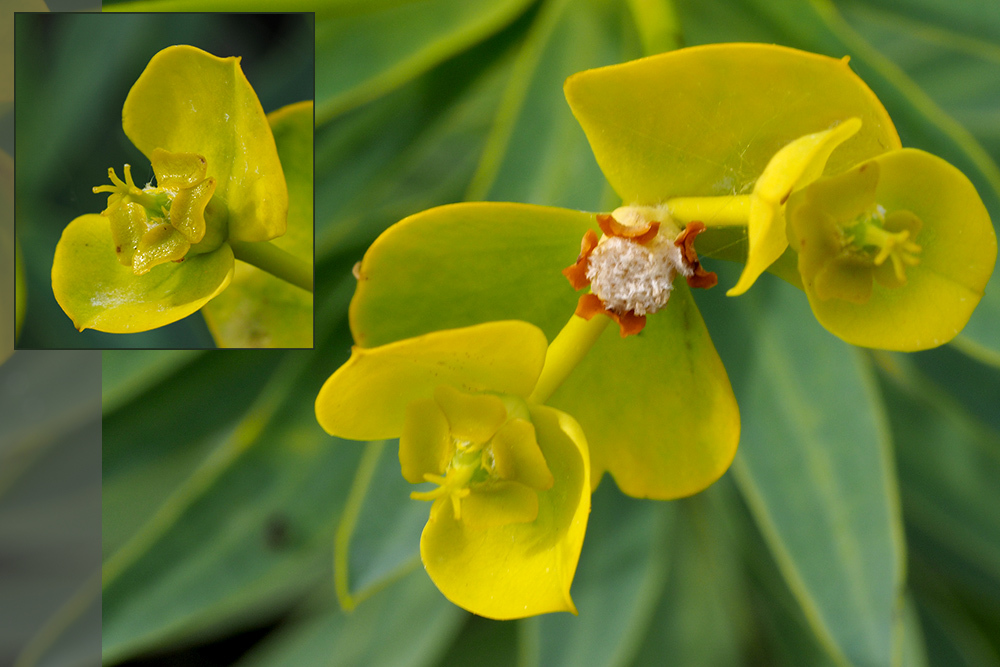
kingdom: Plantae
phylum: Tracheophyta
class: Magnoliopsida
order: Malpighiales
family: Euphorbiaceae
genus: Euphorbia
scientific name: Euphorbia dendroides
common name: Tree spurge
